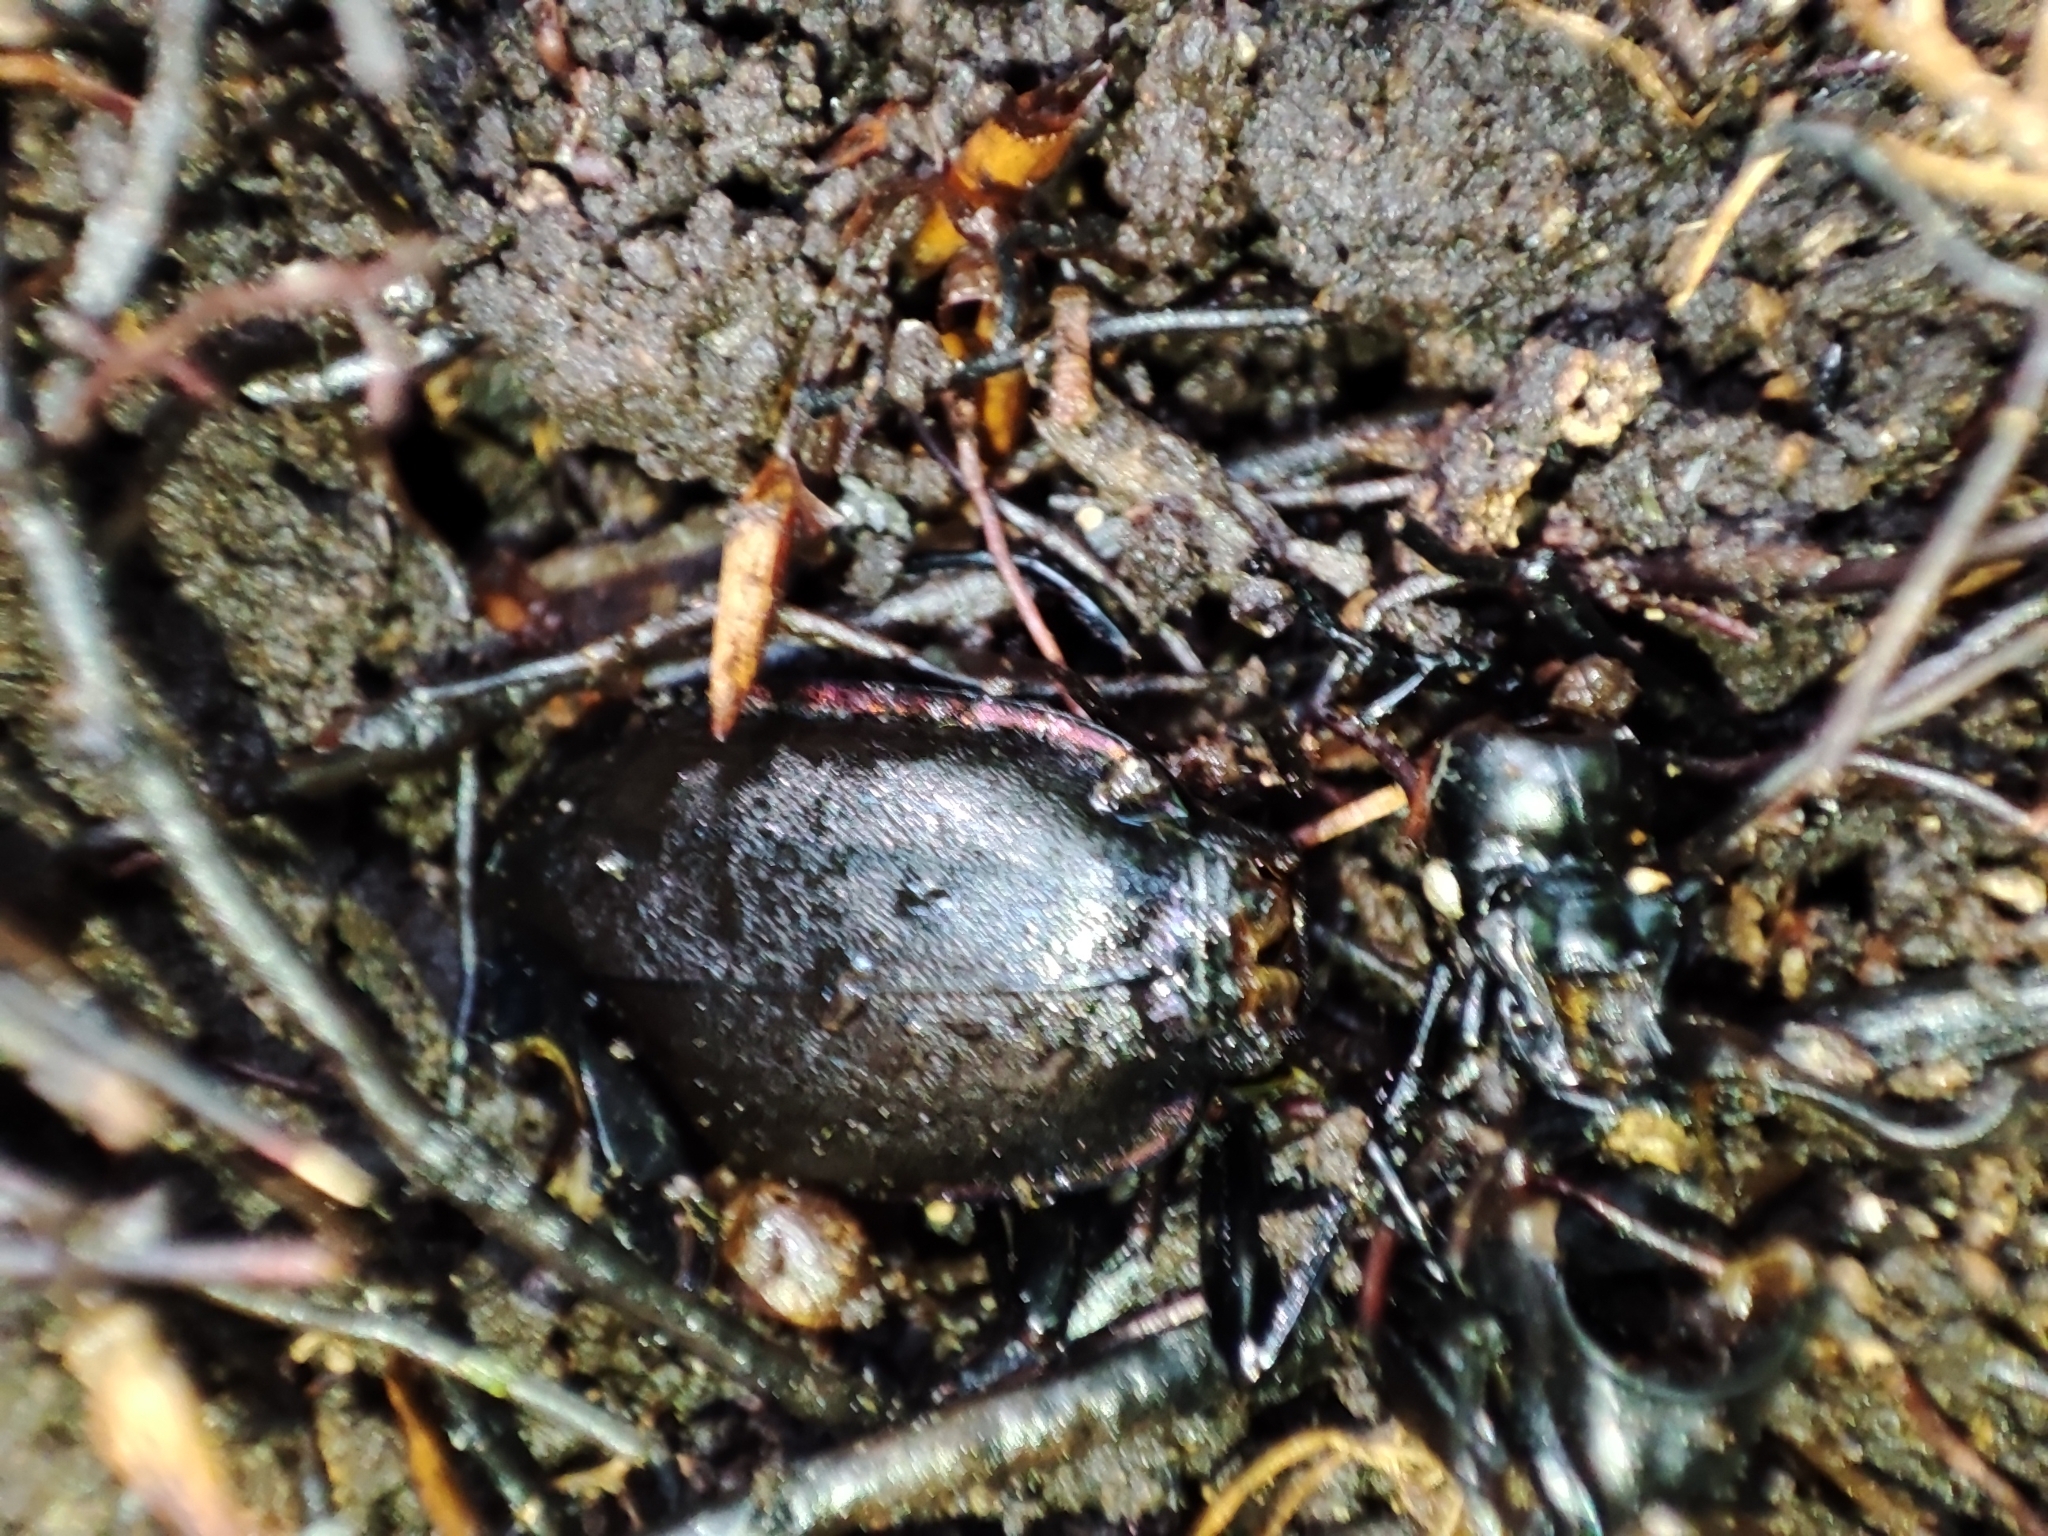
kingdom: Animalia
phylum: Arthropoda
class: Insecta
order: Coleoptera
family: Carabidae
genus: Carabus
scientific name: Carabus violaceus
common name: Violet ground beetle
